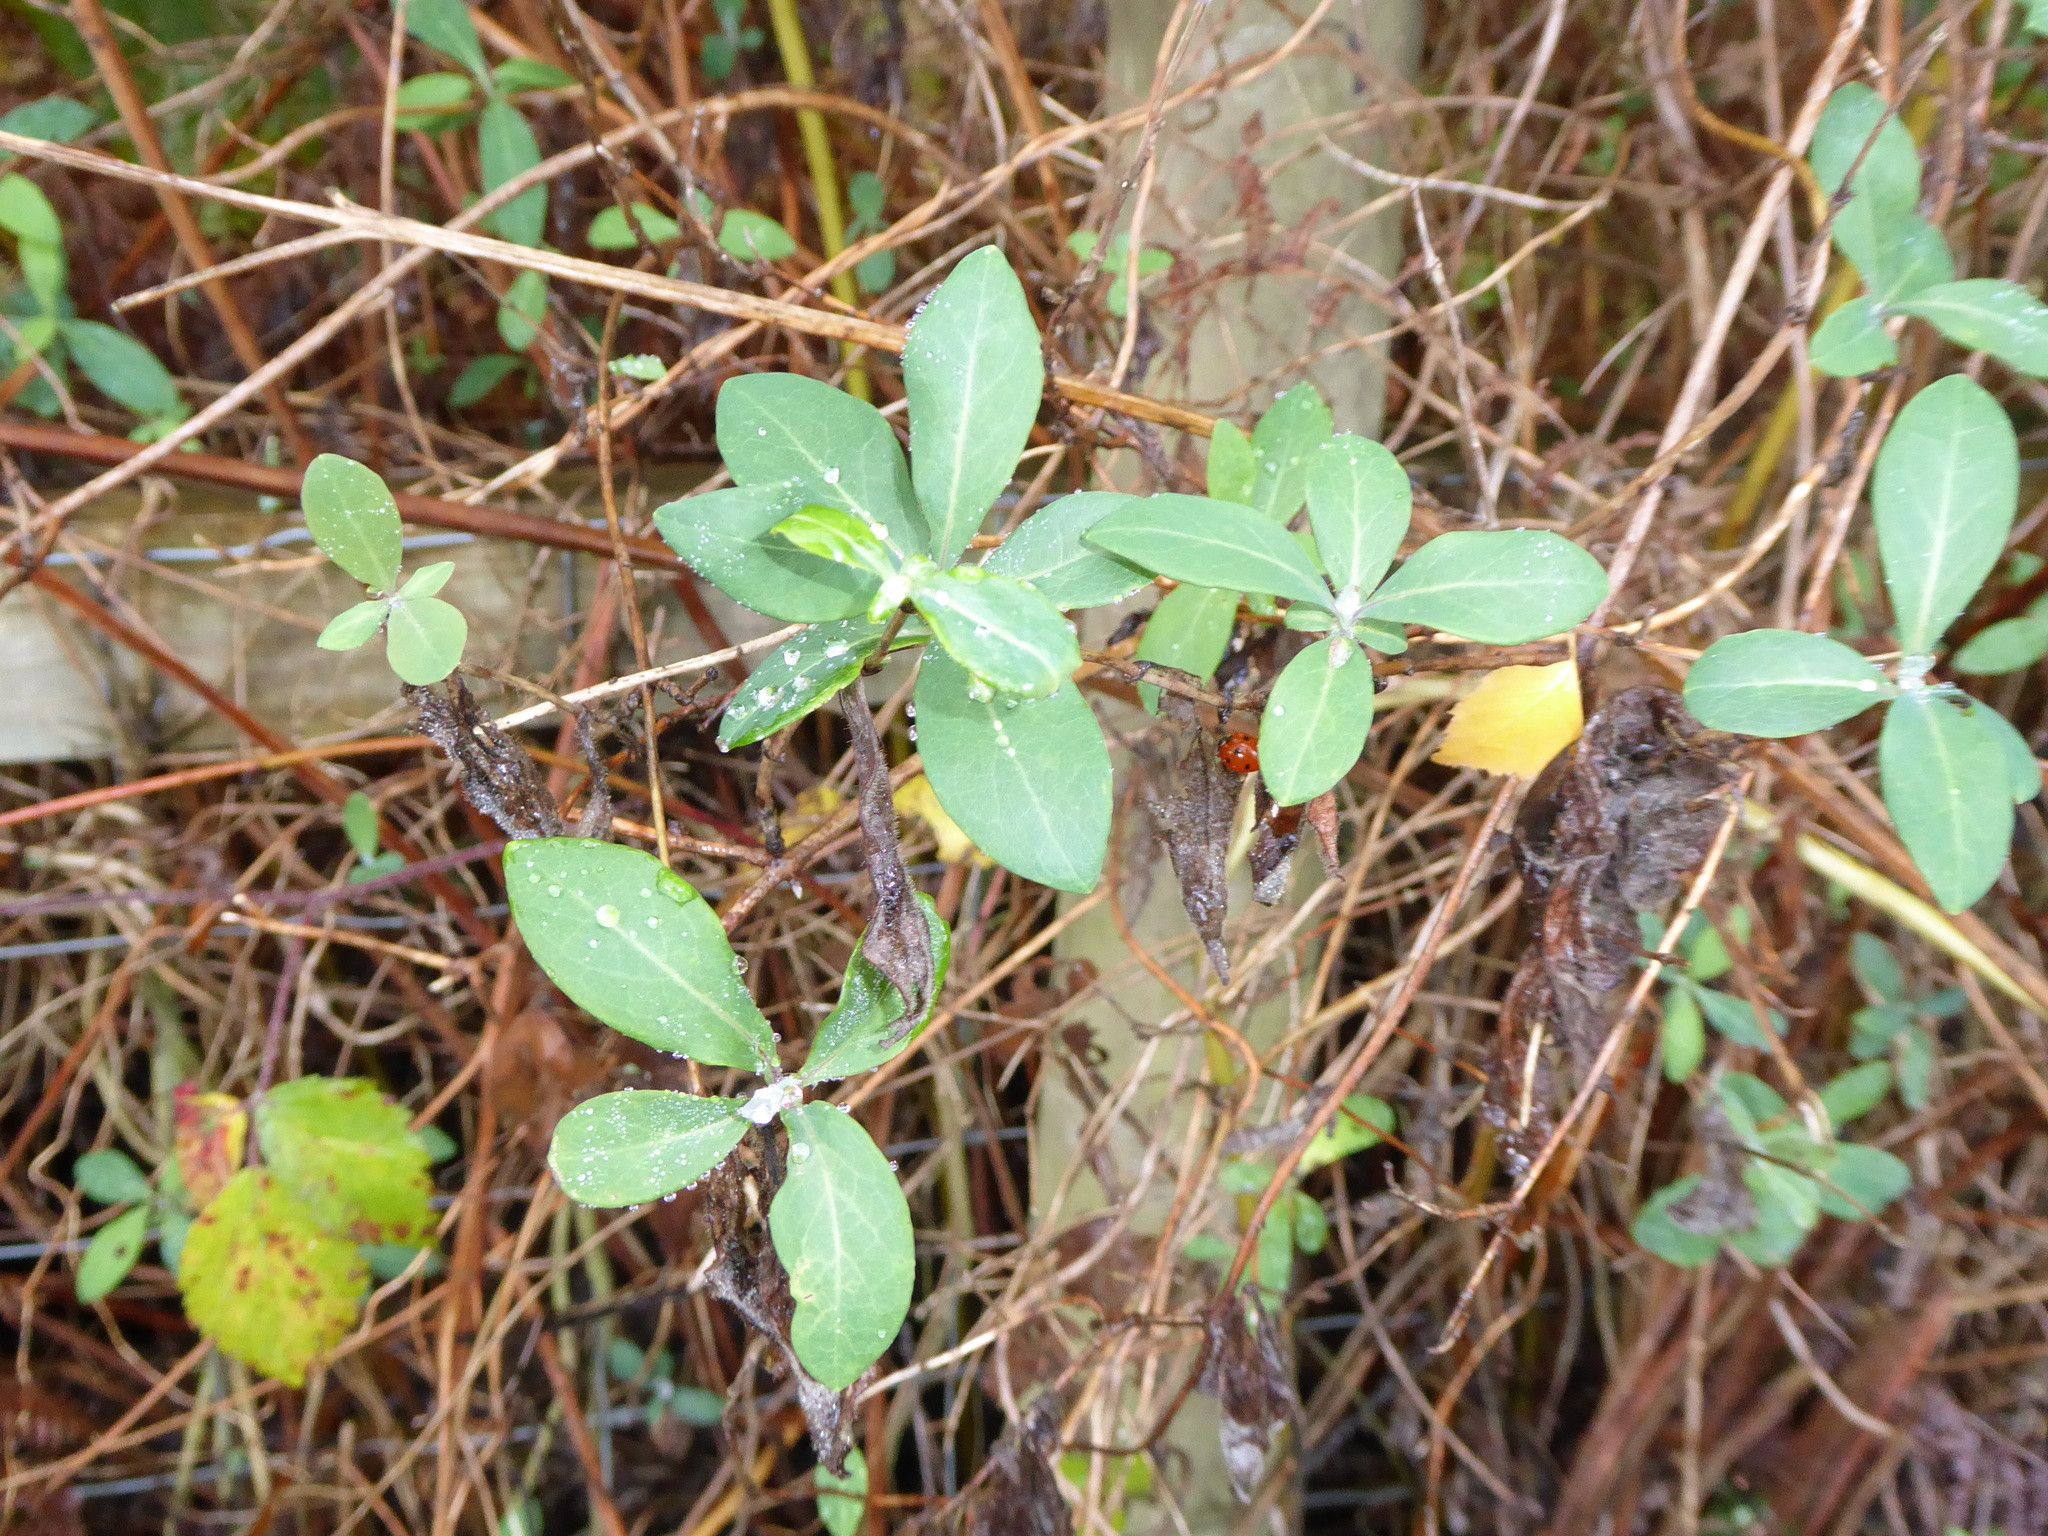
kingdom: Plantae
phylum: Tracheophyta
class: Magnoliopsida
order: Dipsacales
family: Caprifoliaceae
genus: Lonicera
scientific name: Lonicera periclymenum
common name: European honeysuckle
